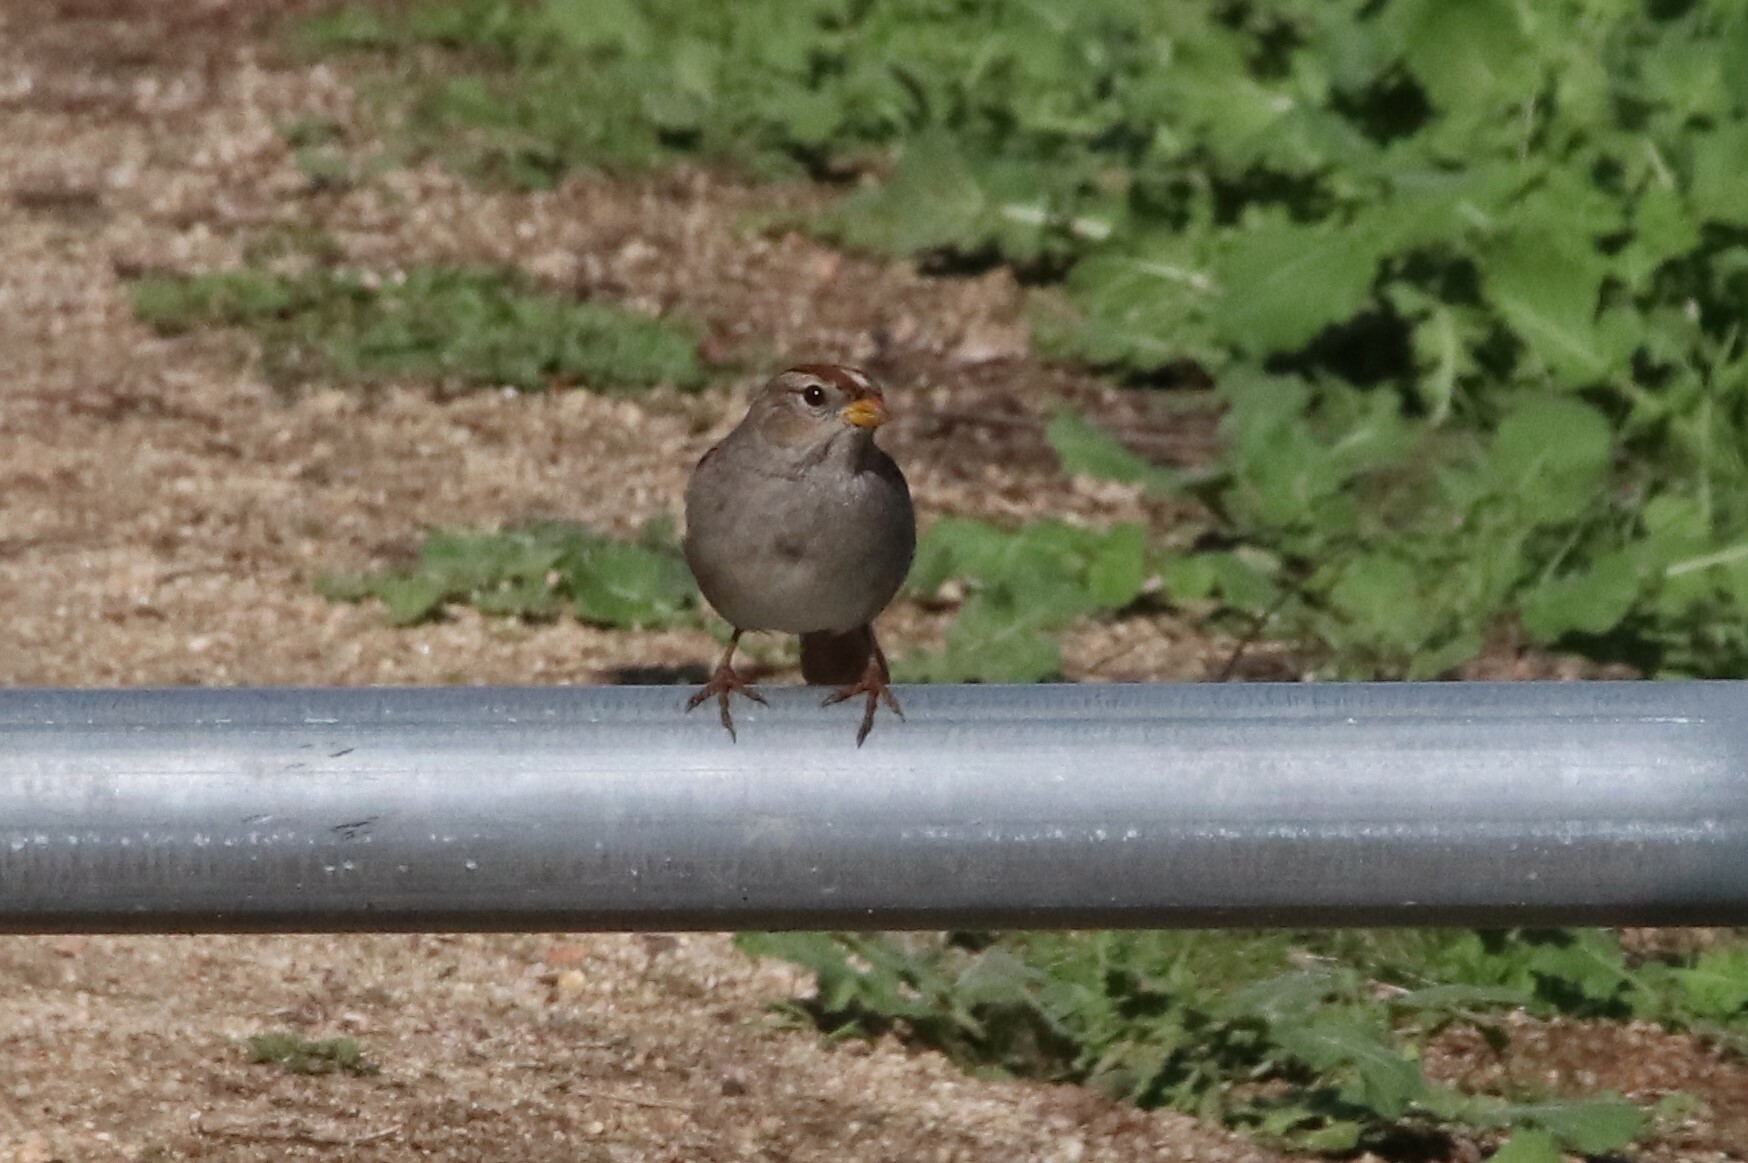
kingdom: Animalia
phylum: Chordata
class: Aves
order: Passeriformes
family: Passerellidae
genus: Zonotrichia
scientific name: Zonotrichia leucophrys
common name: White-crowned sparrow
